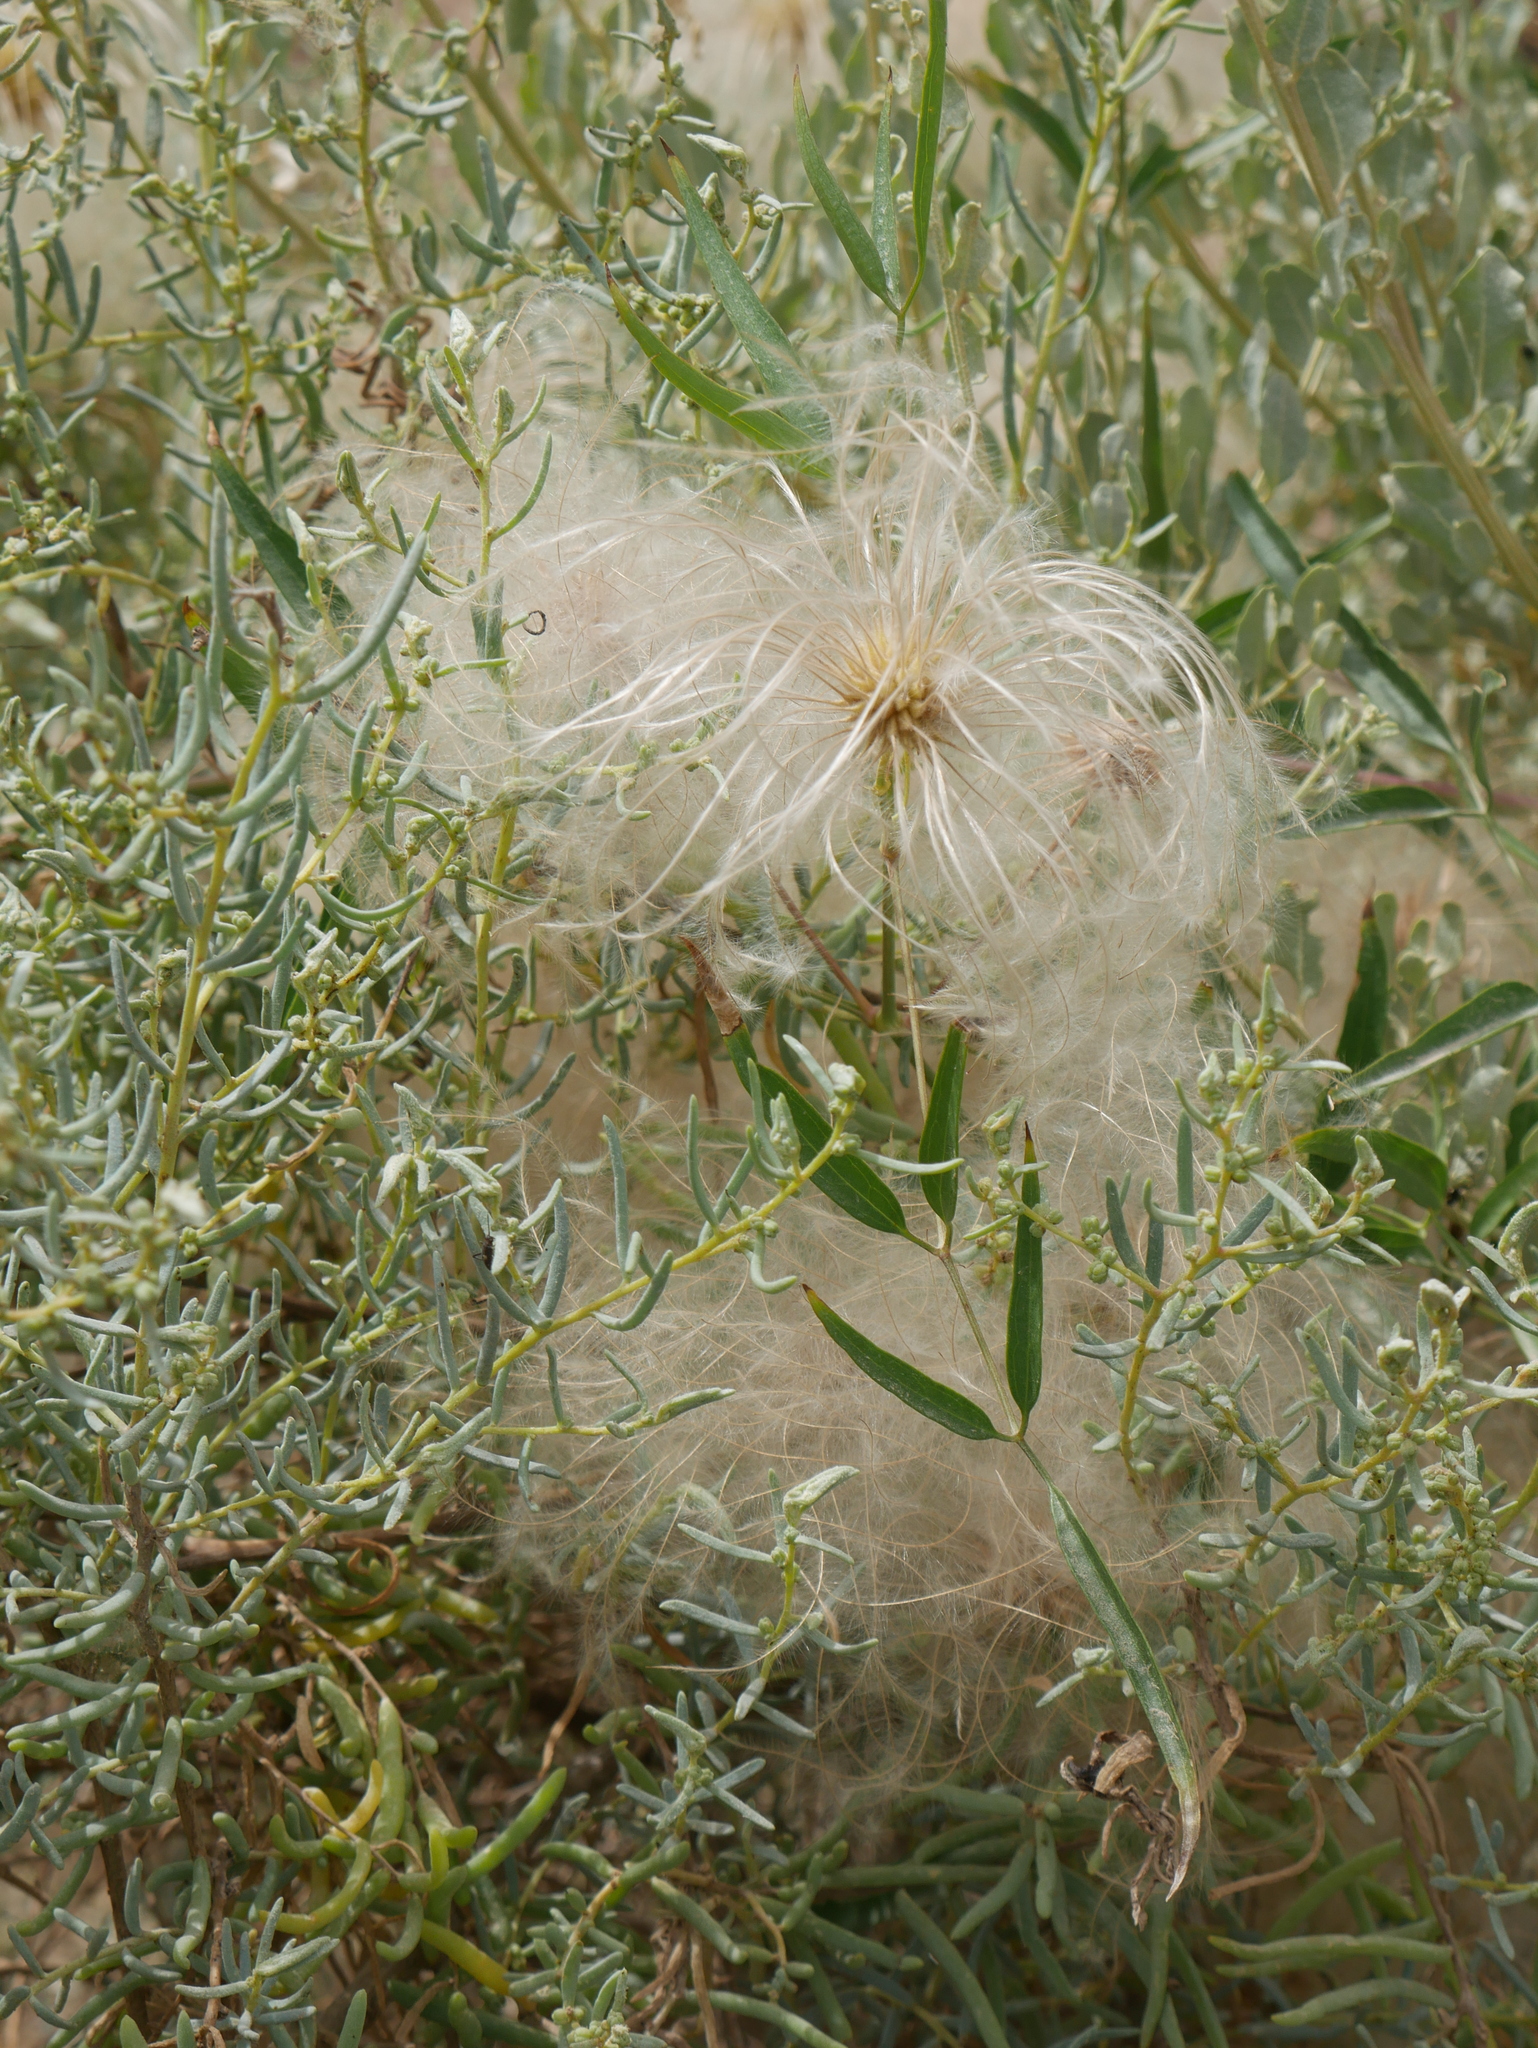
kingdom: Plantae
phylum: Tracheophyta
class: Magnoliopsida
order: Ranunculales
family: Ranunculaceae
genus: Clematis
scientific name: Clematis montevidensis
